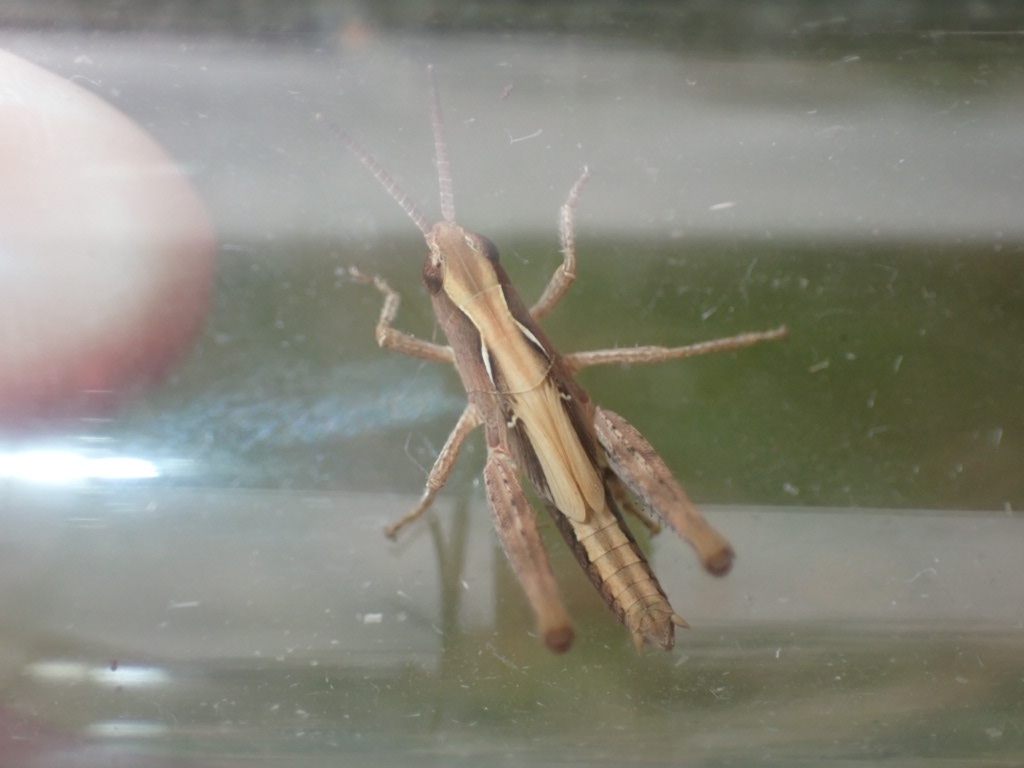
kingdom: Animalia
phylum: Arthropoda
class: Insecta
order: Orthoptera
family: Acrididae
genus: Chorthippus
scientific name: Chorthippus brunneus
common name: Field grasshopper
